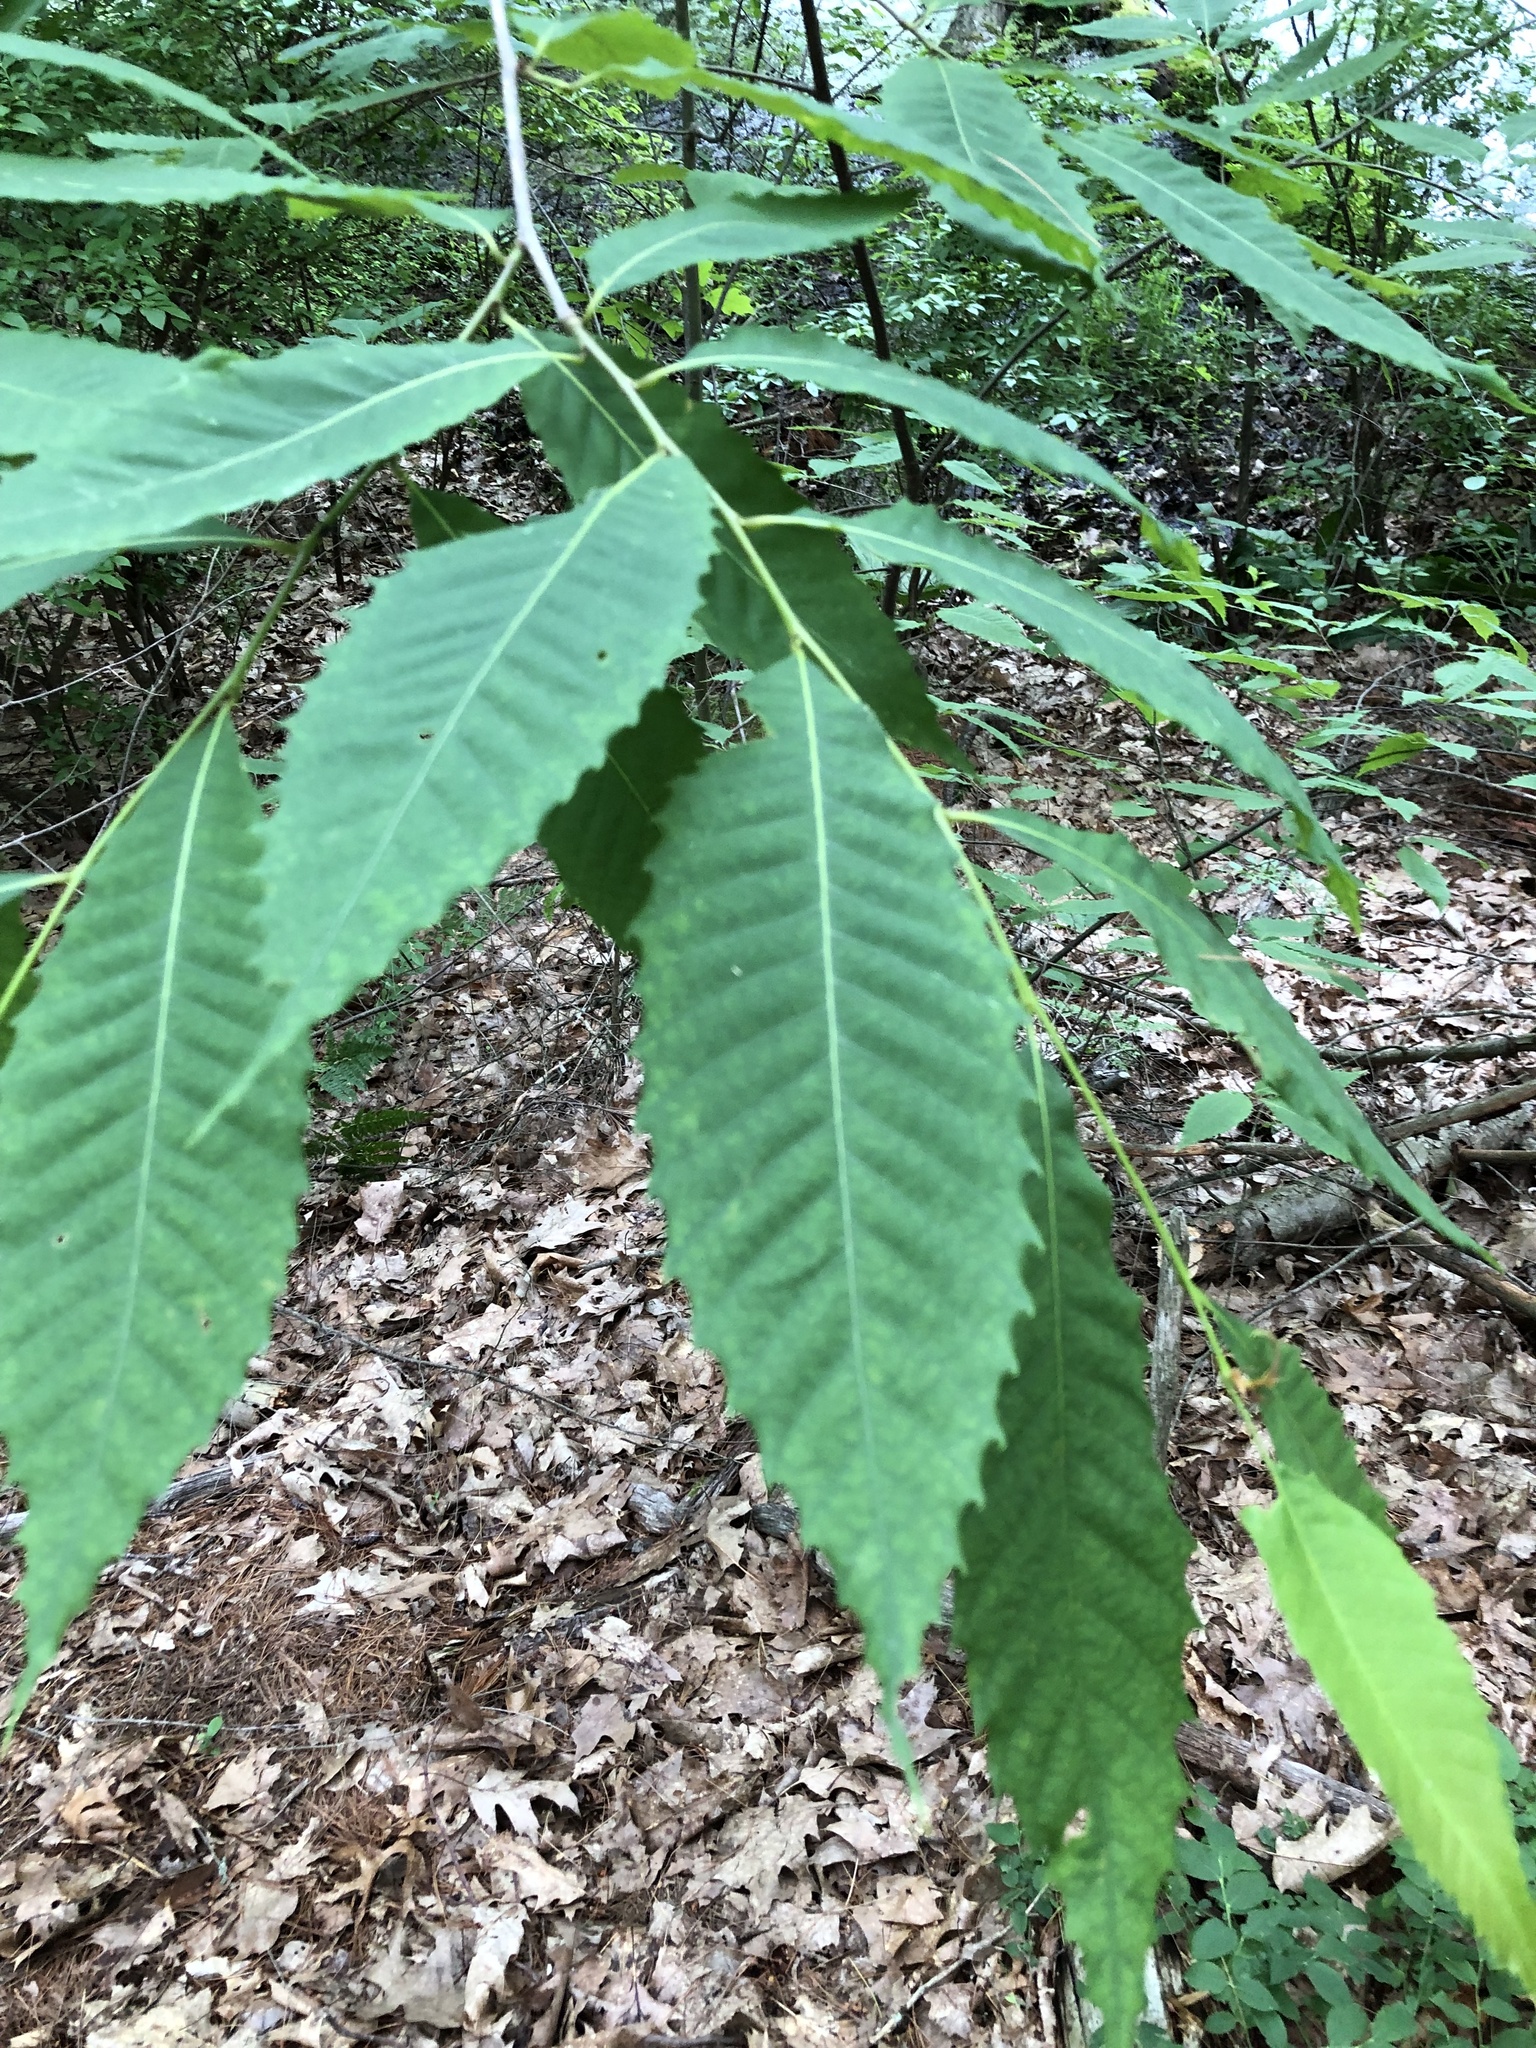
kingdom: Plantae
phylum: Tracheophyta
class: Magnoliopsida
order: Fagales
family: Fagaceae
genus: Castanea
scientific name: Castanea dentata
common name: American chestnut
